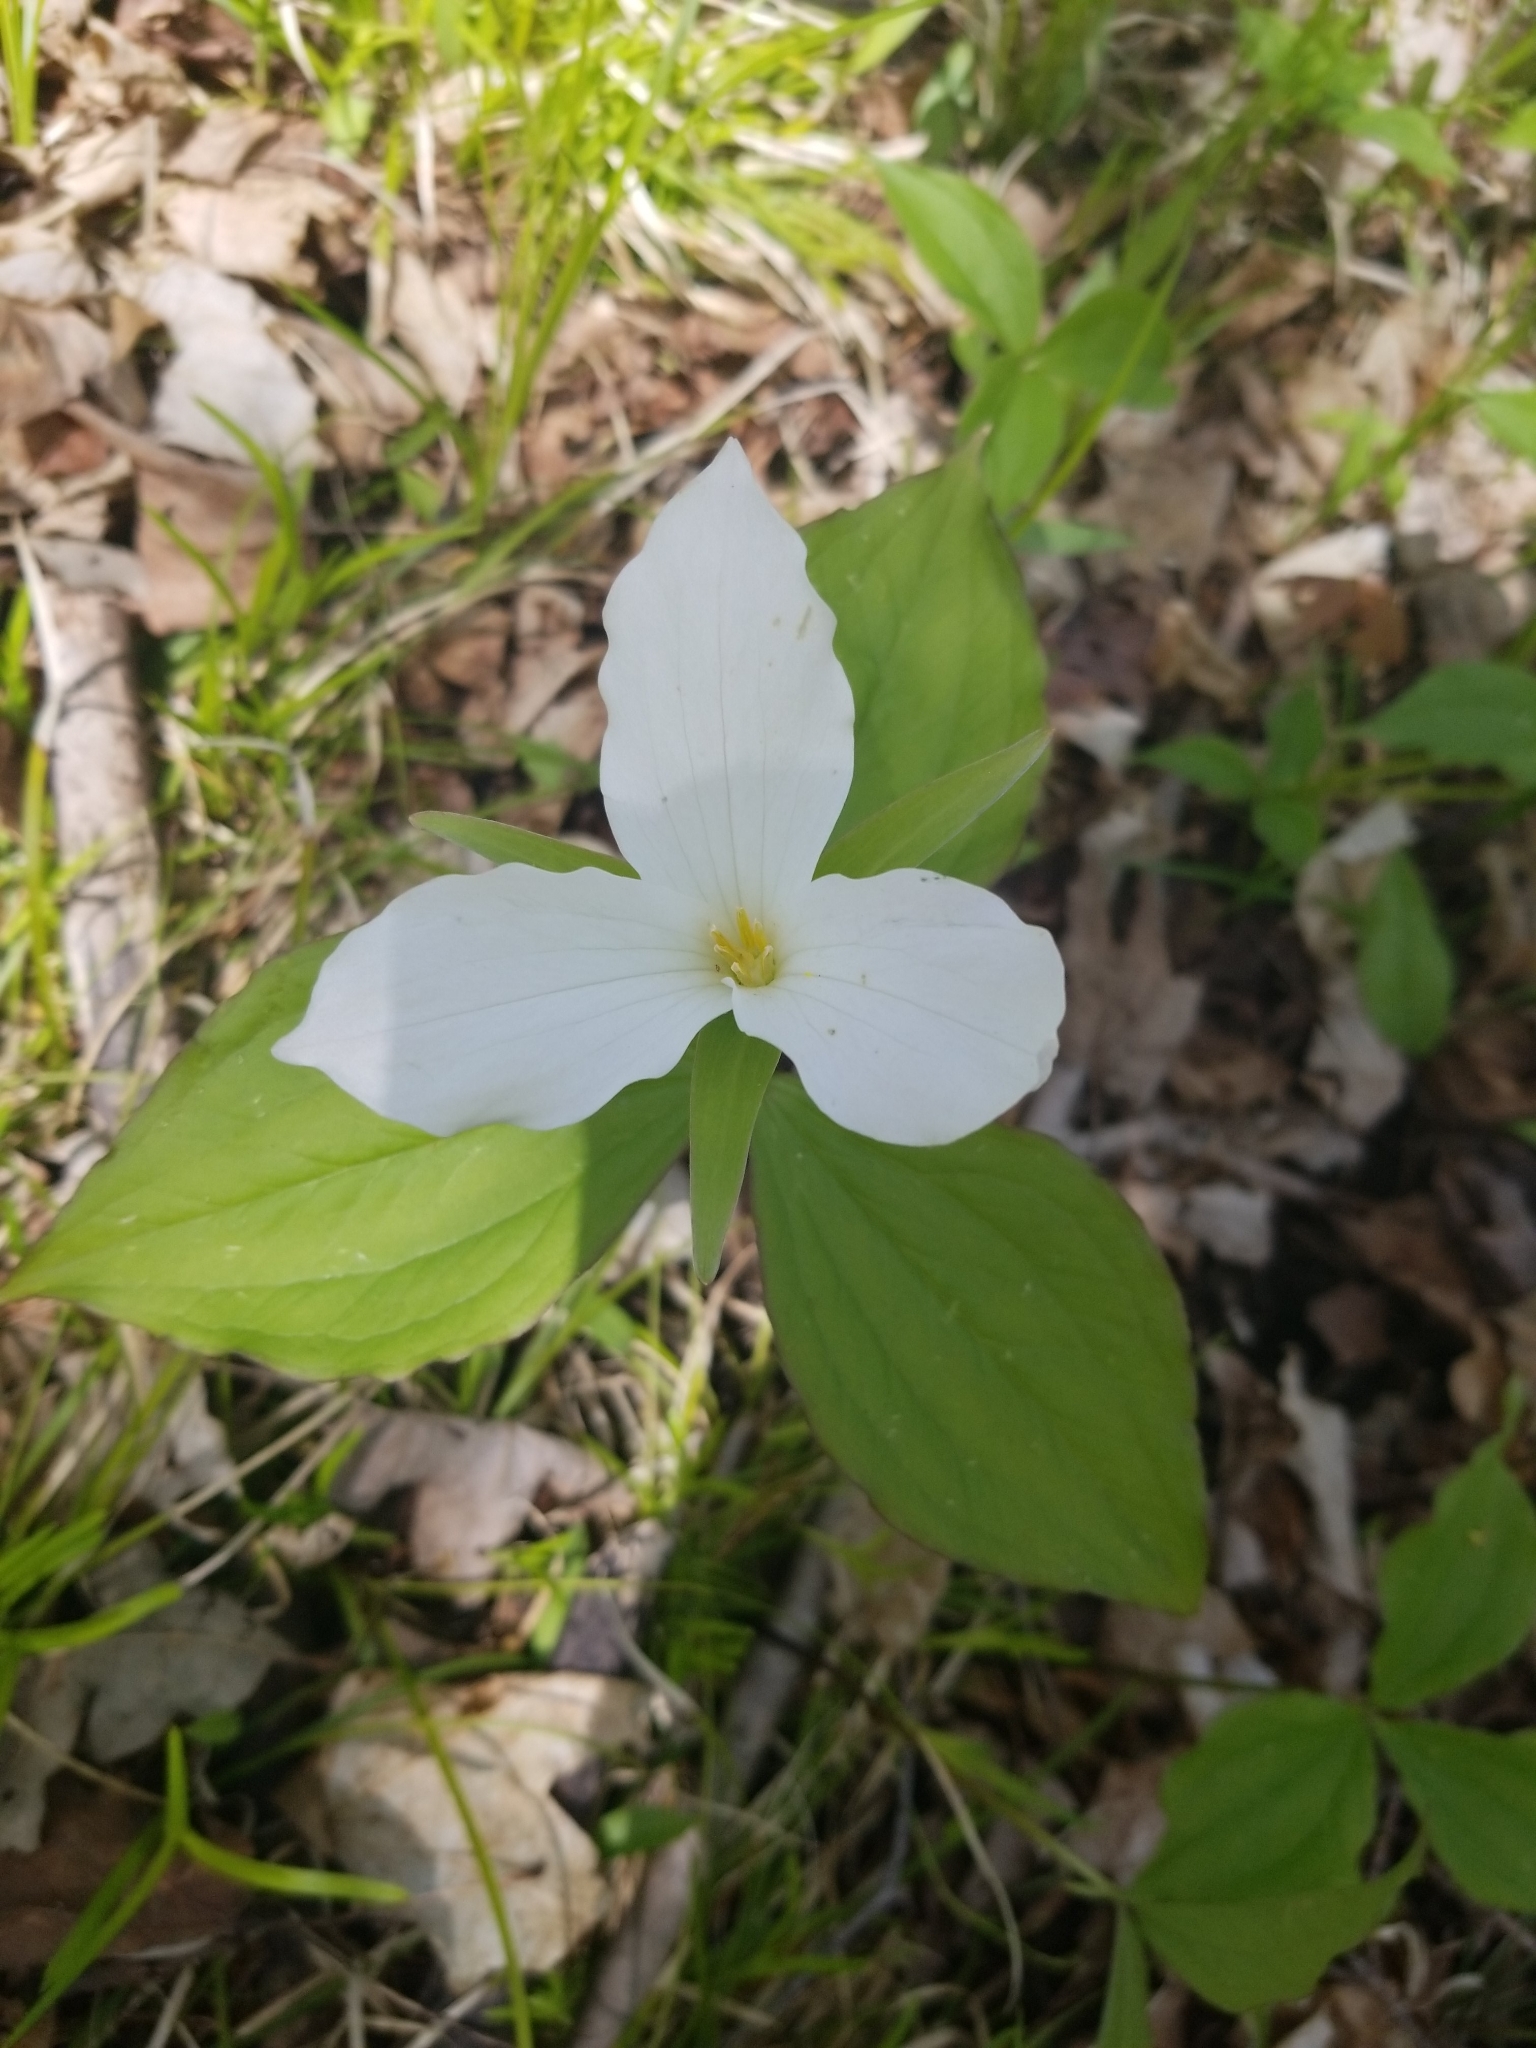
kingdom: Plantae
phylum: Tracheophyta
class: Liliopsida
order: Liliales
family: Melanthiaceae
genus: Trillium
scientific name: Trillium grandiflorum
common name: Great white trillium
